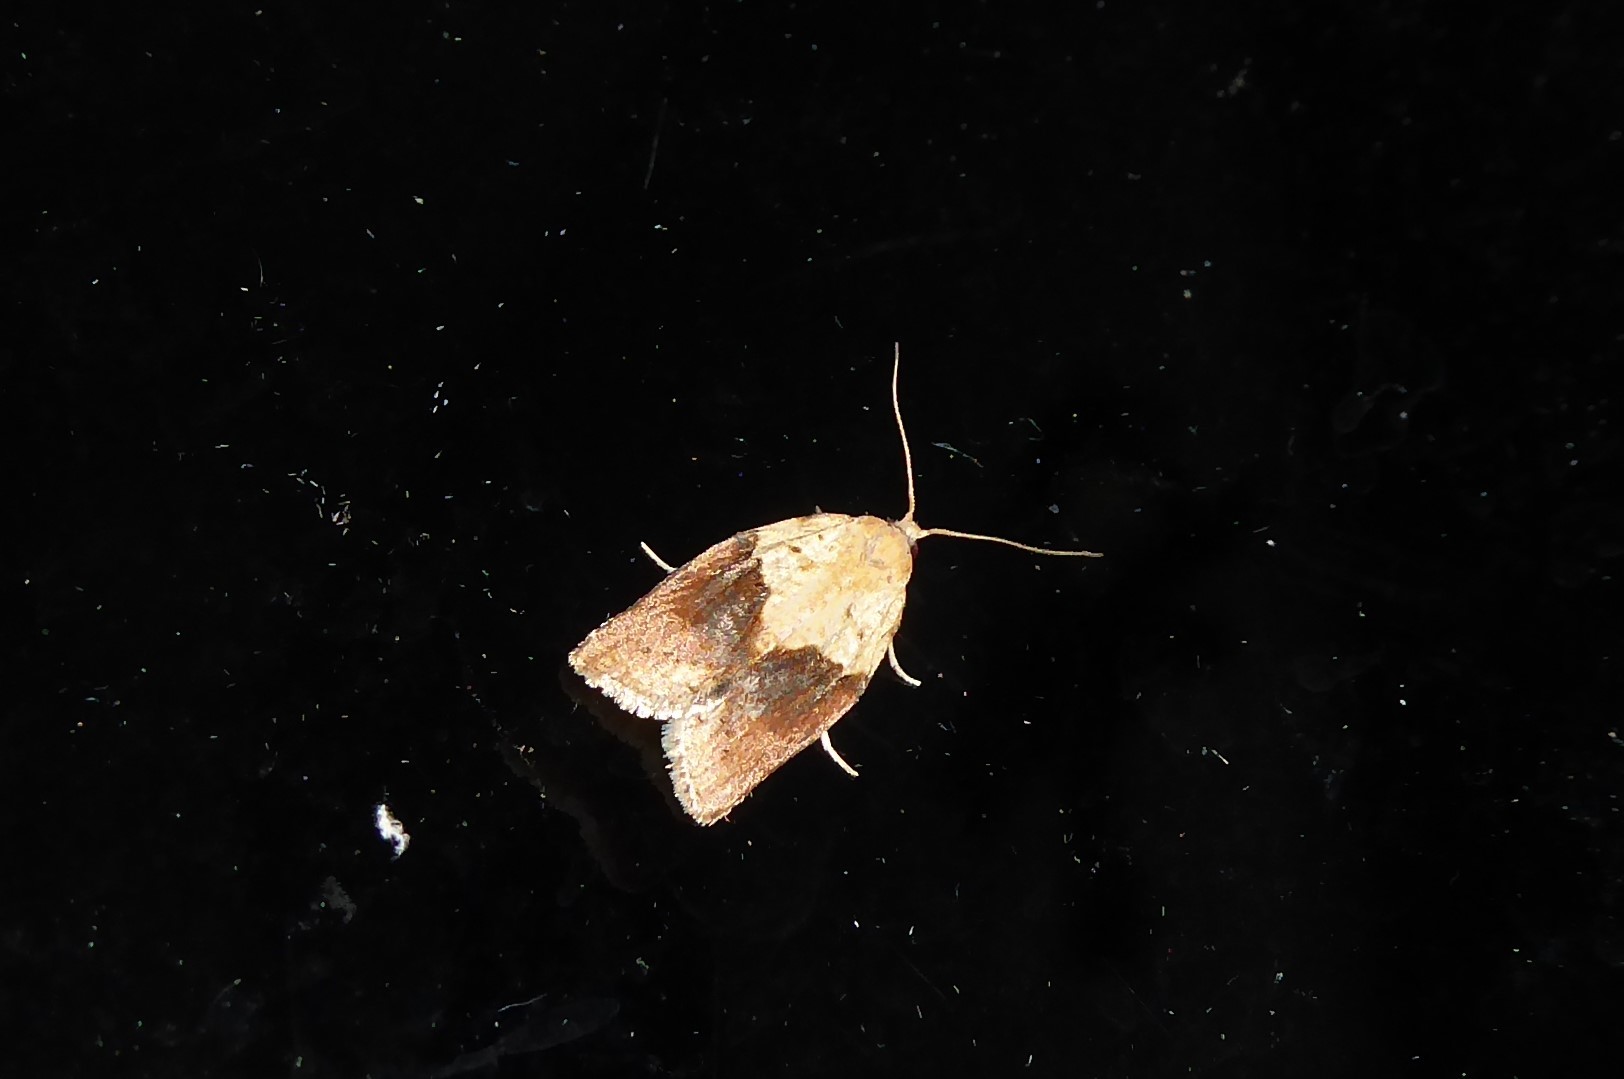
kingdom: Animalia
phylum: Arthropoda
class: Insecta
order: Lepidoptera
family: Tortricidae
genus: Epiphyas
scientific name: Epiphyas postvittana
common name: Light brown apple moth
